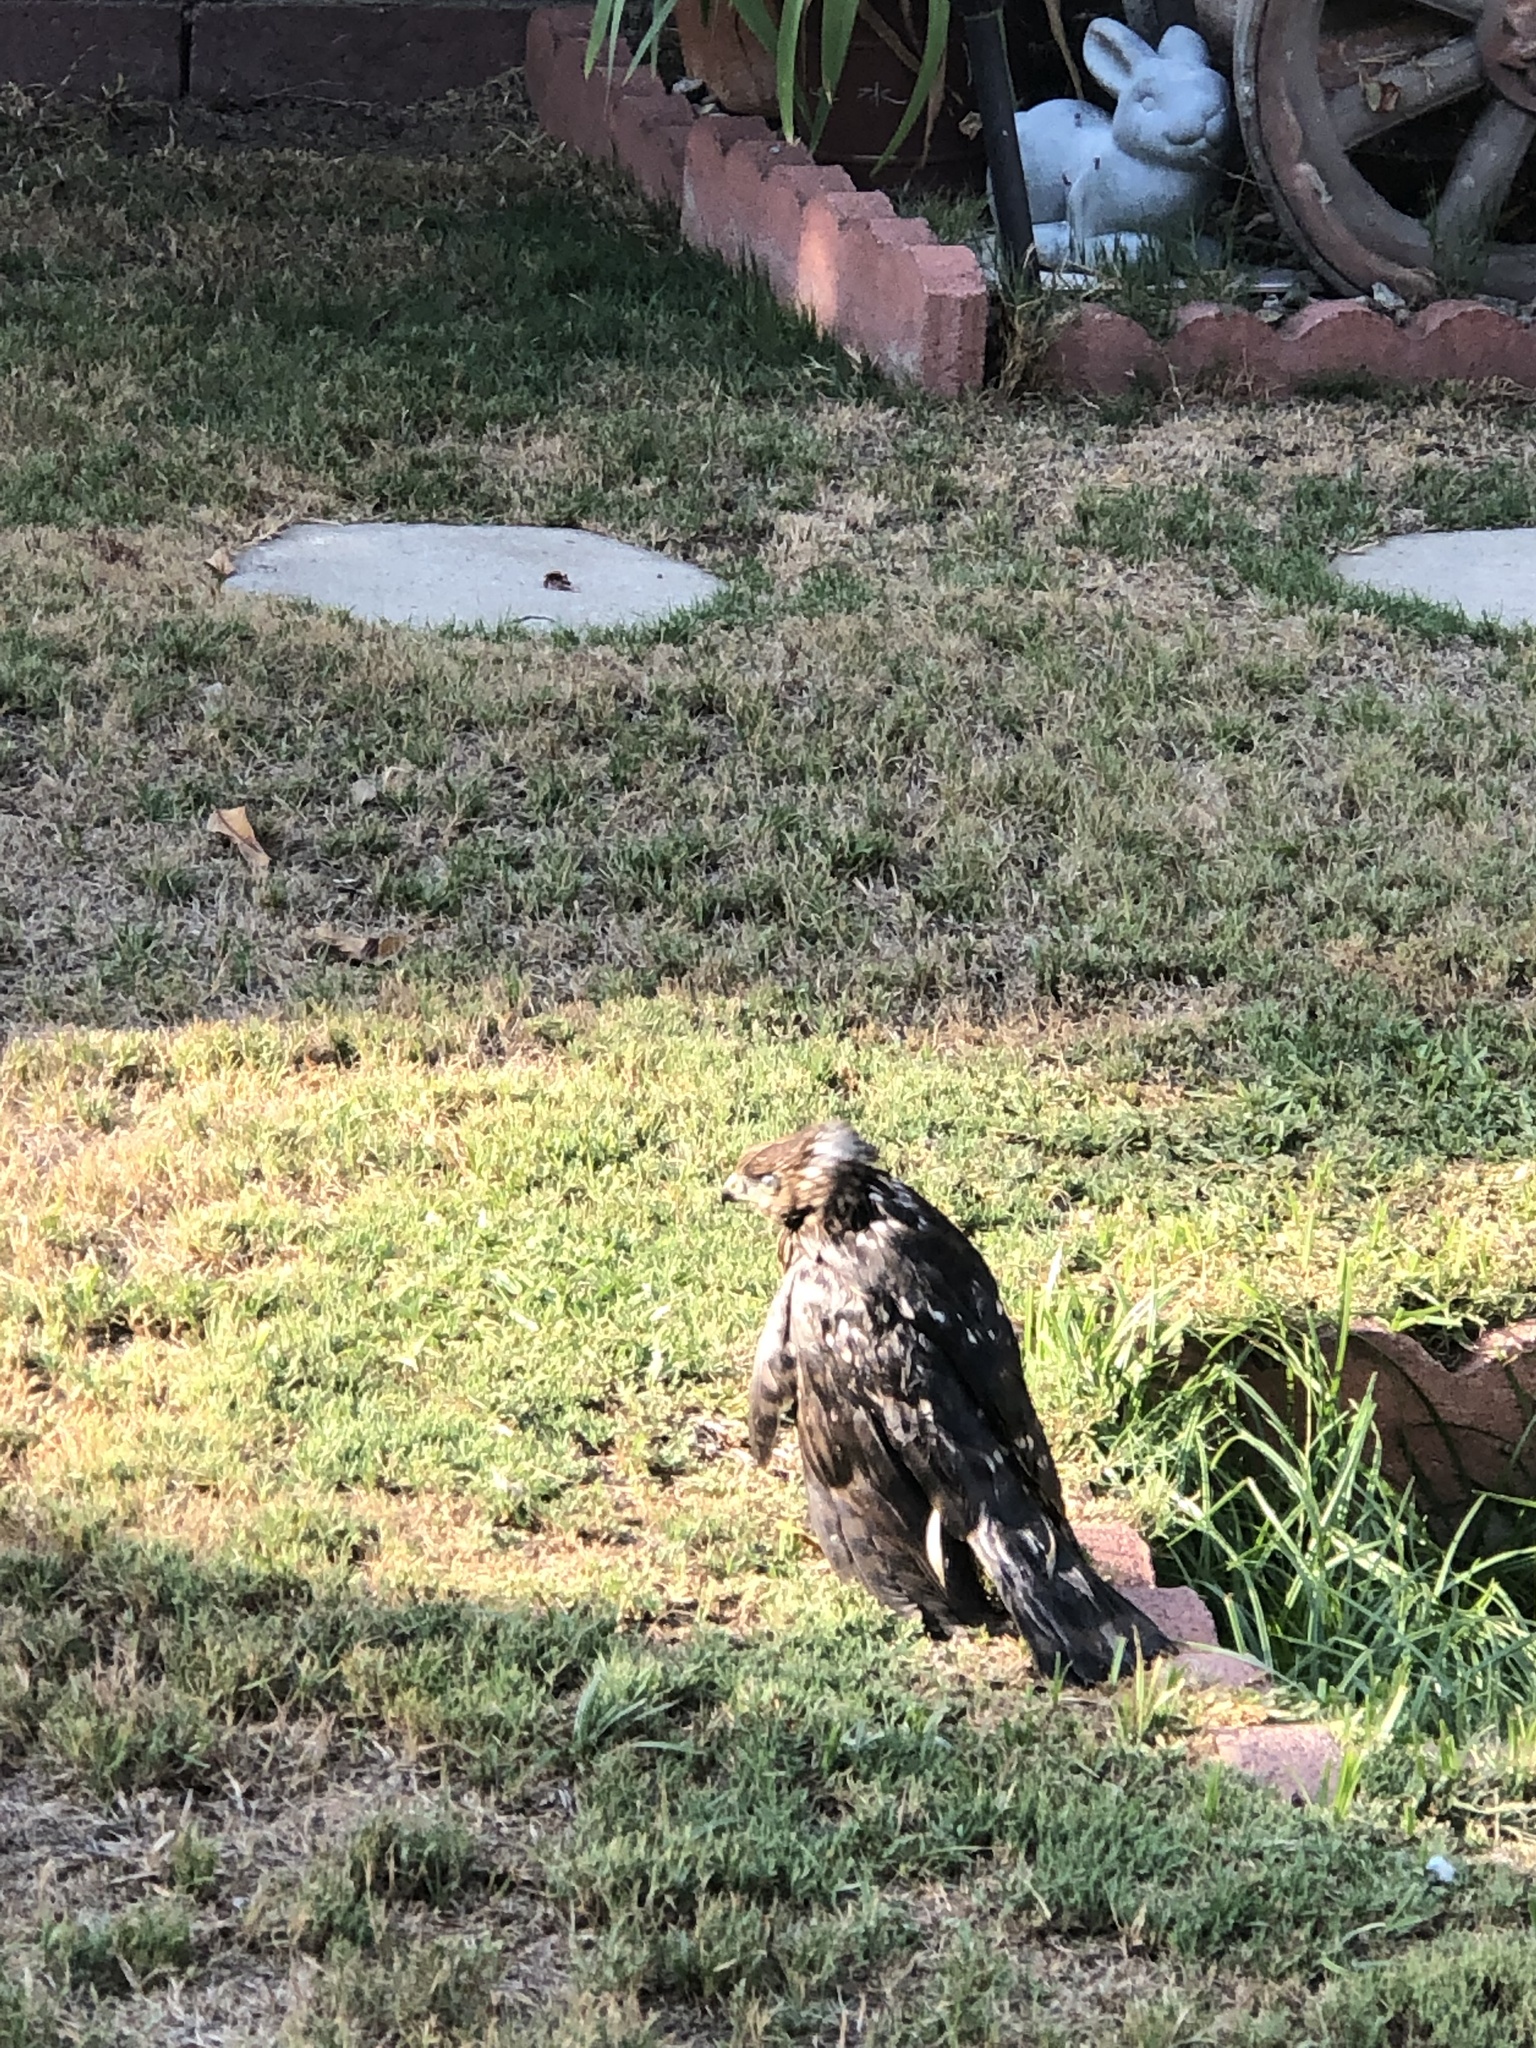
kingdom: Animalia
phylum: Chordata
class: Aves
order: Accipitriformes
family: Accipitridae
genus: Accipiter
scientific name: Accipiter cooperii
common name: Cooper's hawk
